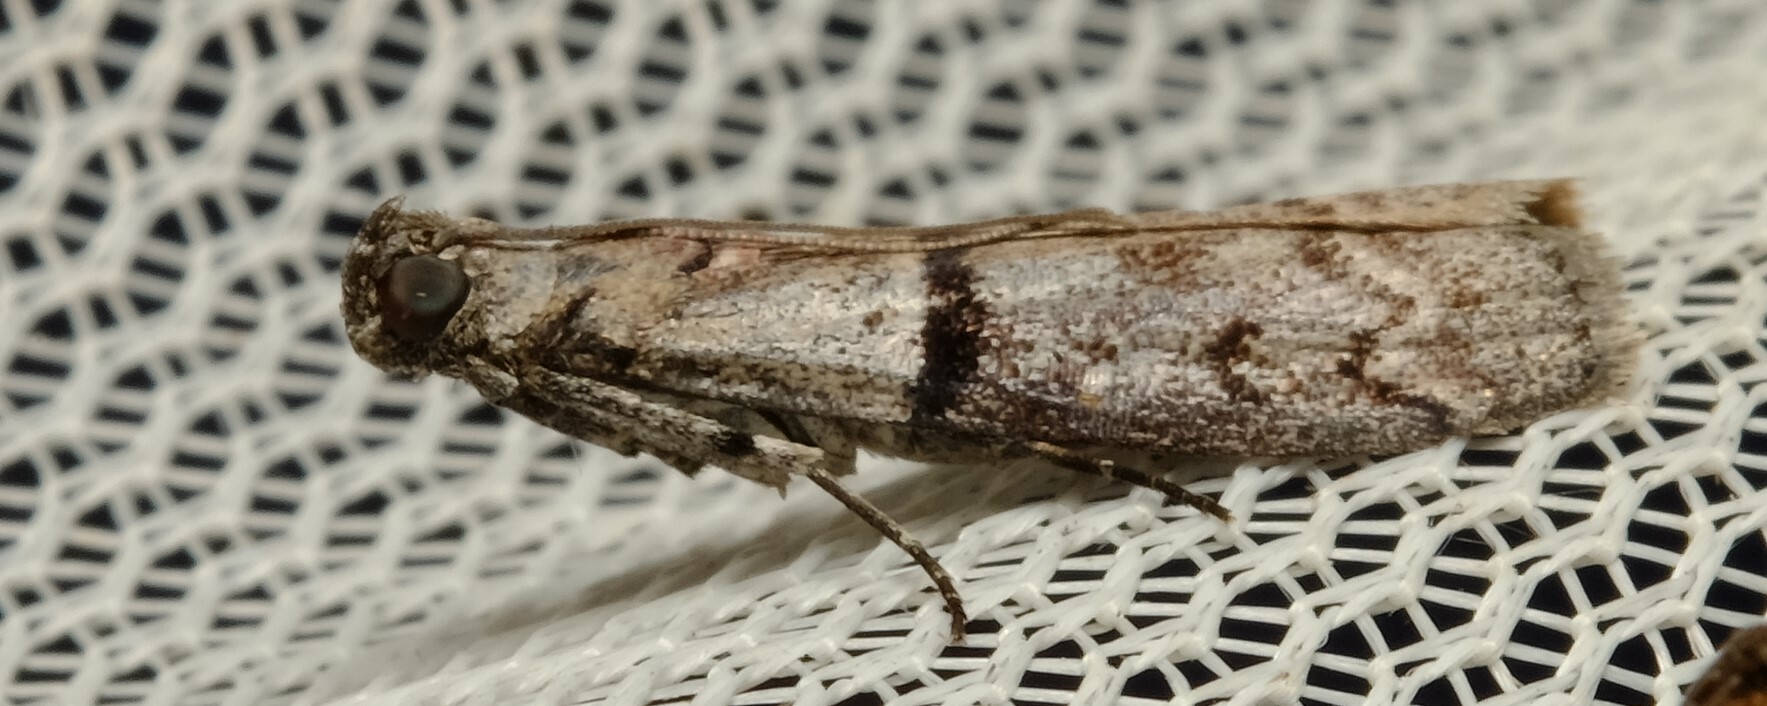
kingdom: Animalia
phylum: Arthropoda
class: Insecta
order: Lepidoptera
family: Pyralidae
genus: Cryptoblabes
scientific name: Cryptoblabes euraphella
